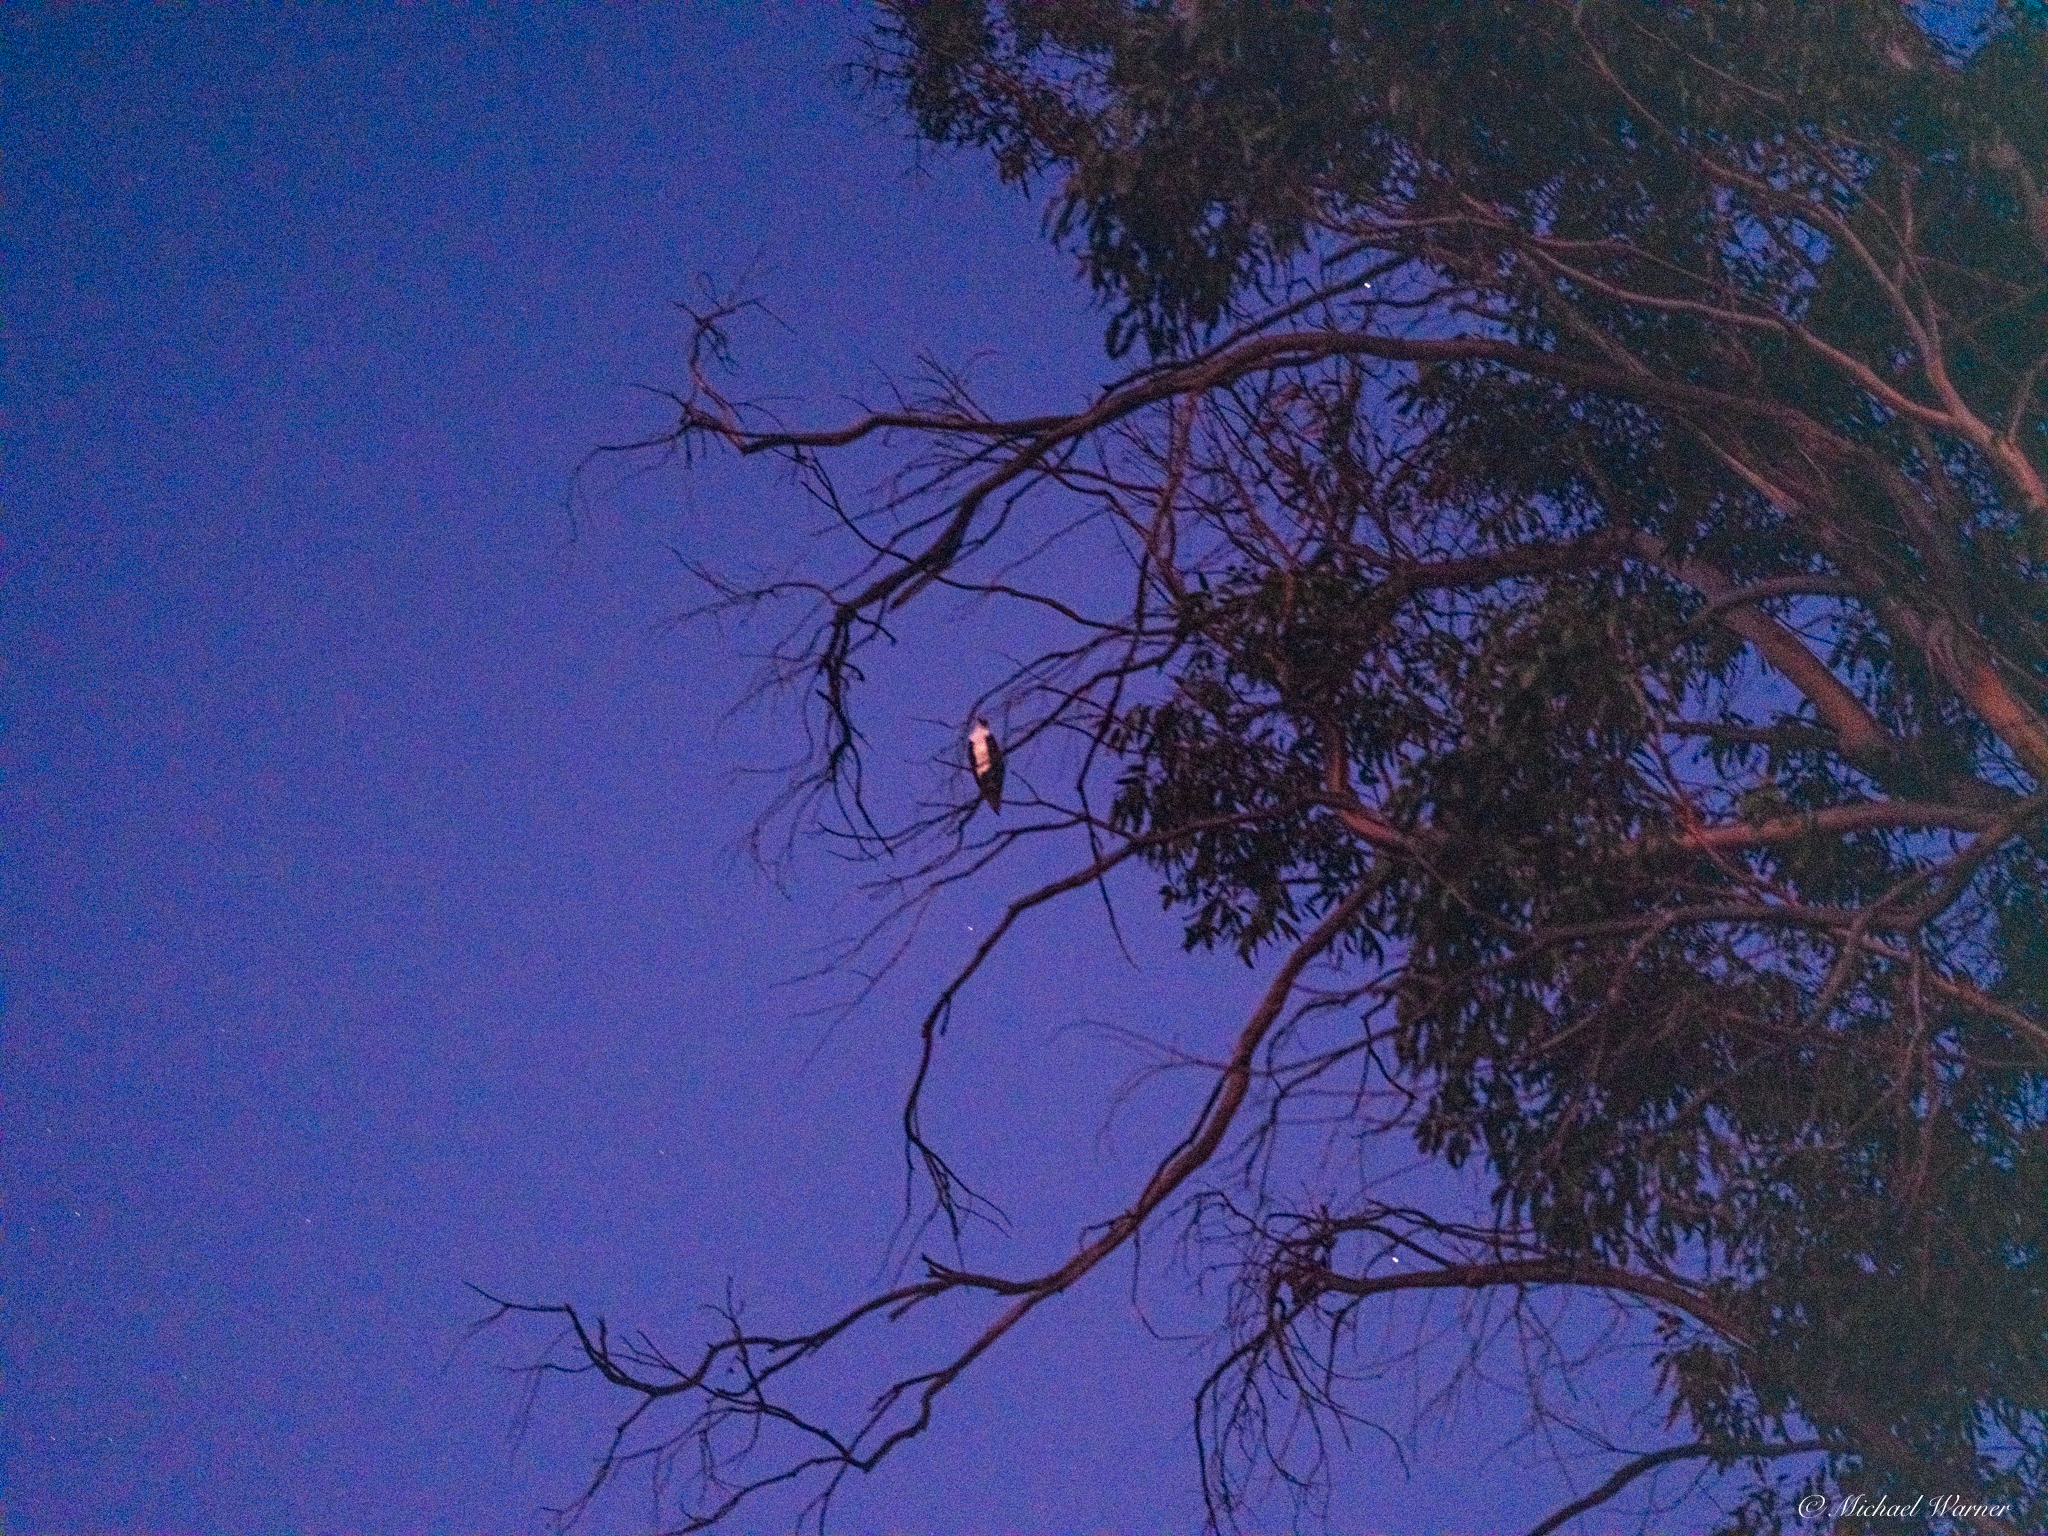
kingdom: Animalia
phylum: Chordata
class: Aves
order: Accipitriformes
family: Pandionidae
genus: Pandion
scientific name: Pandion haliaetus
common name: Osprey
